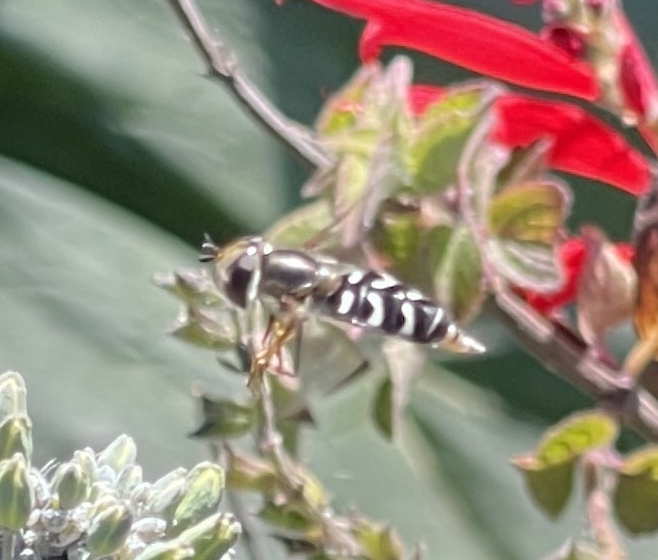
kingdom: Animalia
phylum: Arthropoda
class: Insecta
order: Diptera
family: Syrphidae
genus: Eupeodes
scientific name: Eupeodes volucris
